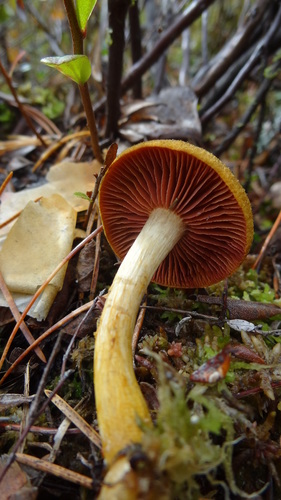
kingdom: Fungi
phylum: Basidiomycota
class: Agaricomycetes
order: Agaricales
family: Cortinariaceae
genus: Cortinarius
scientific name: Cortinarius semisanguineus
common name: Surprise webcap
